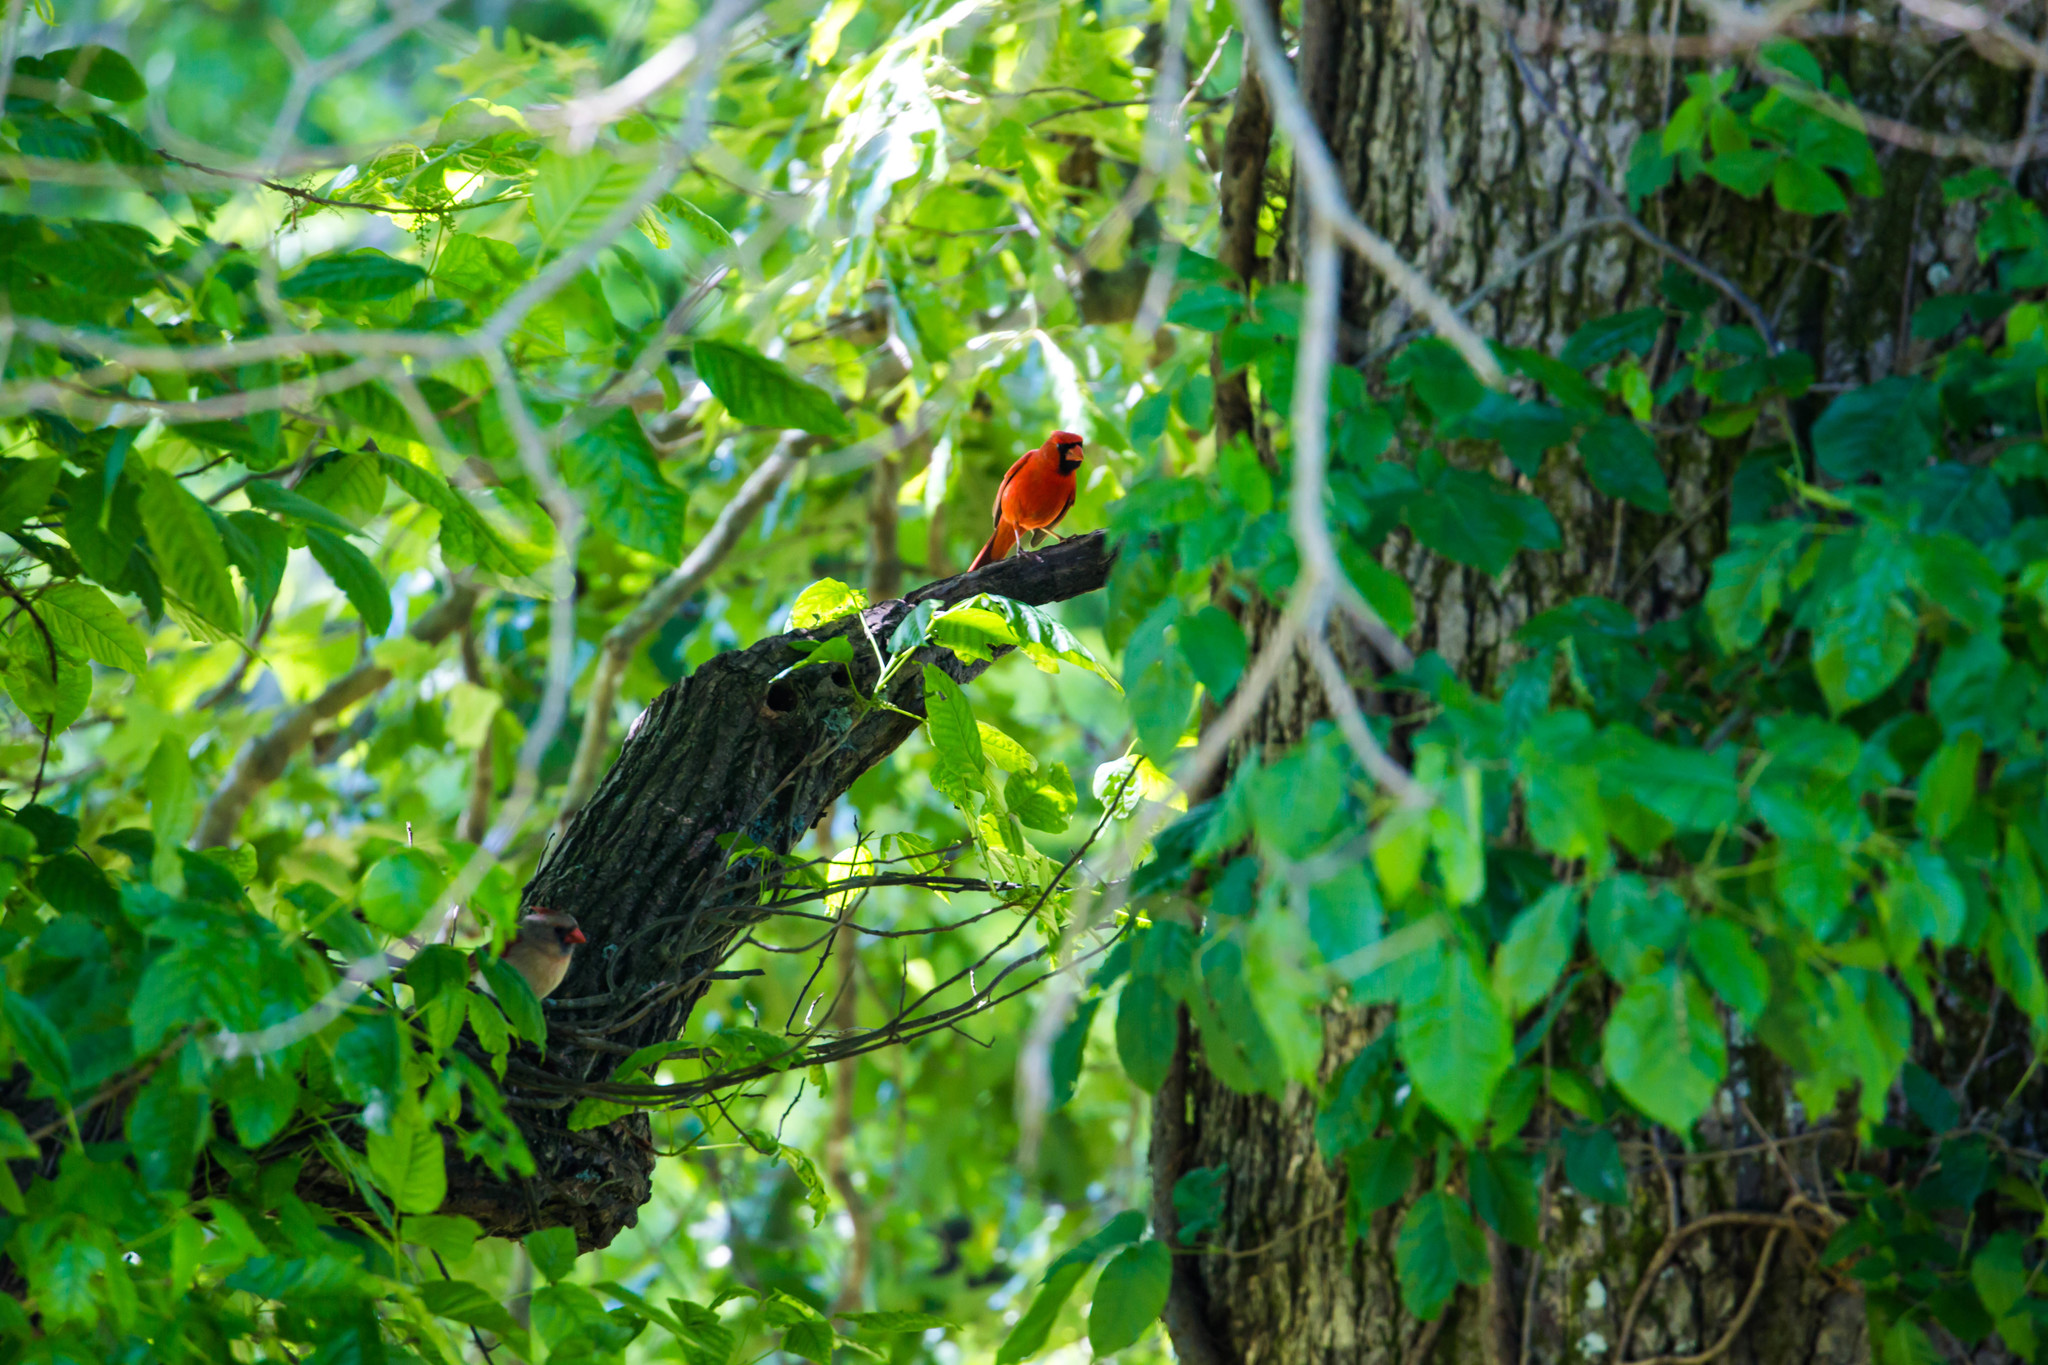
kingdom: Animalia
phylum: Chordata
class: Aves
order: Passeriformes
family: Cardinalidae
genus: Cardinalis
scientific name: Cardinalis cardinalis
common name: Northern cardinal
